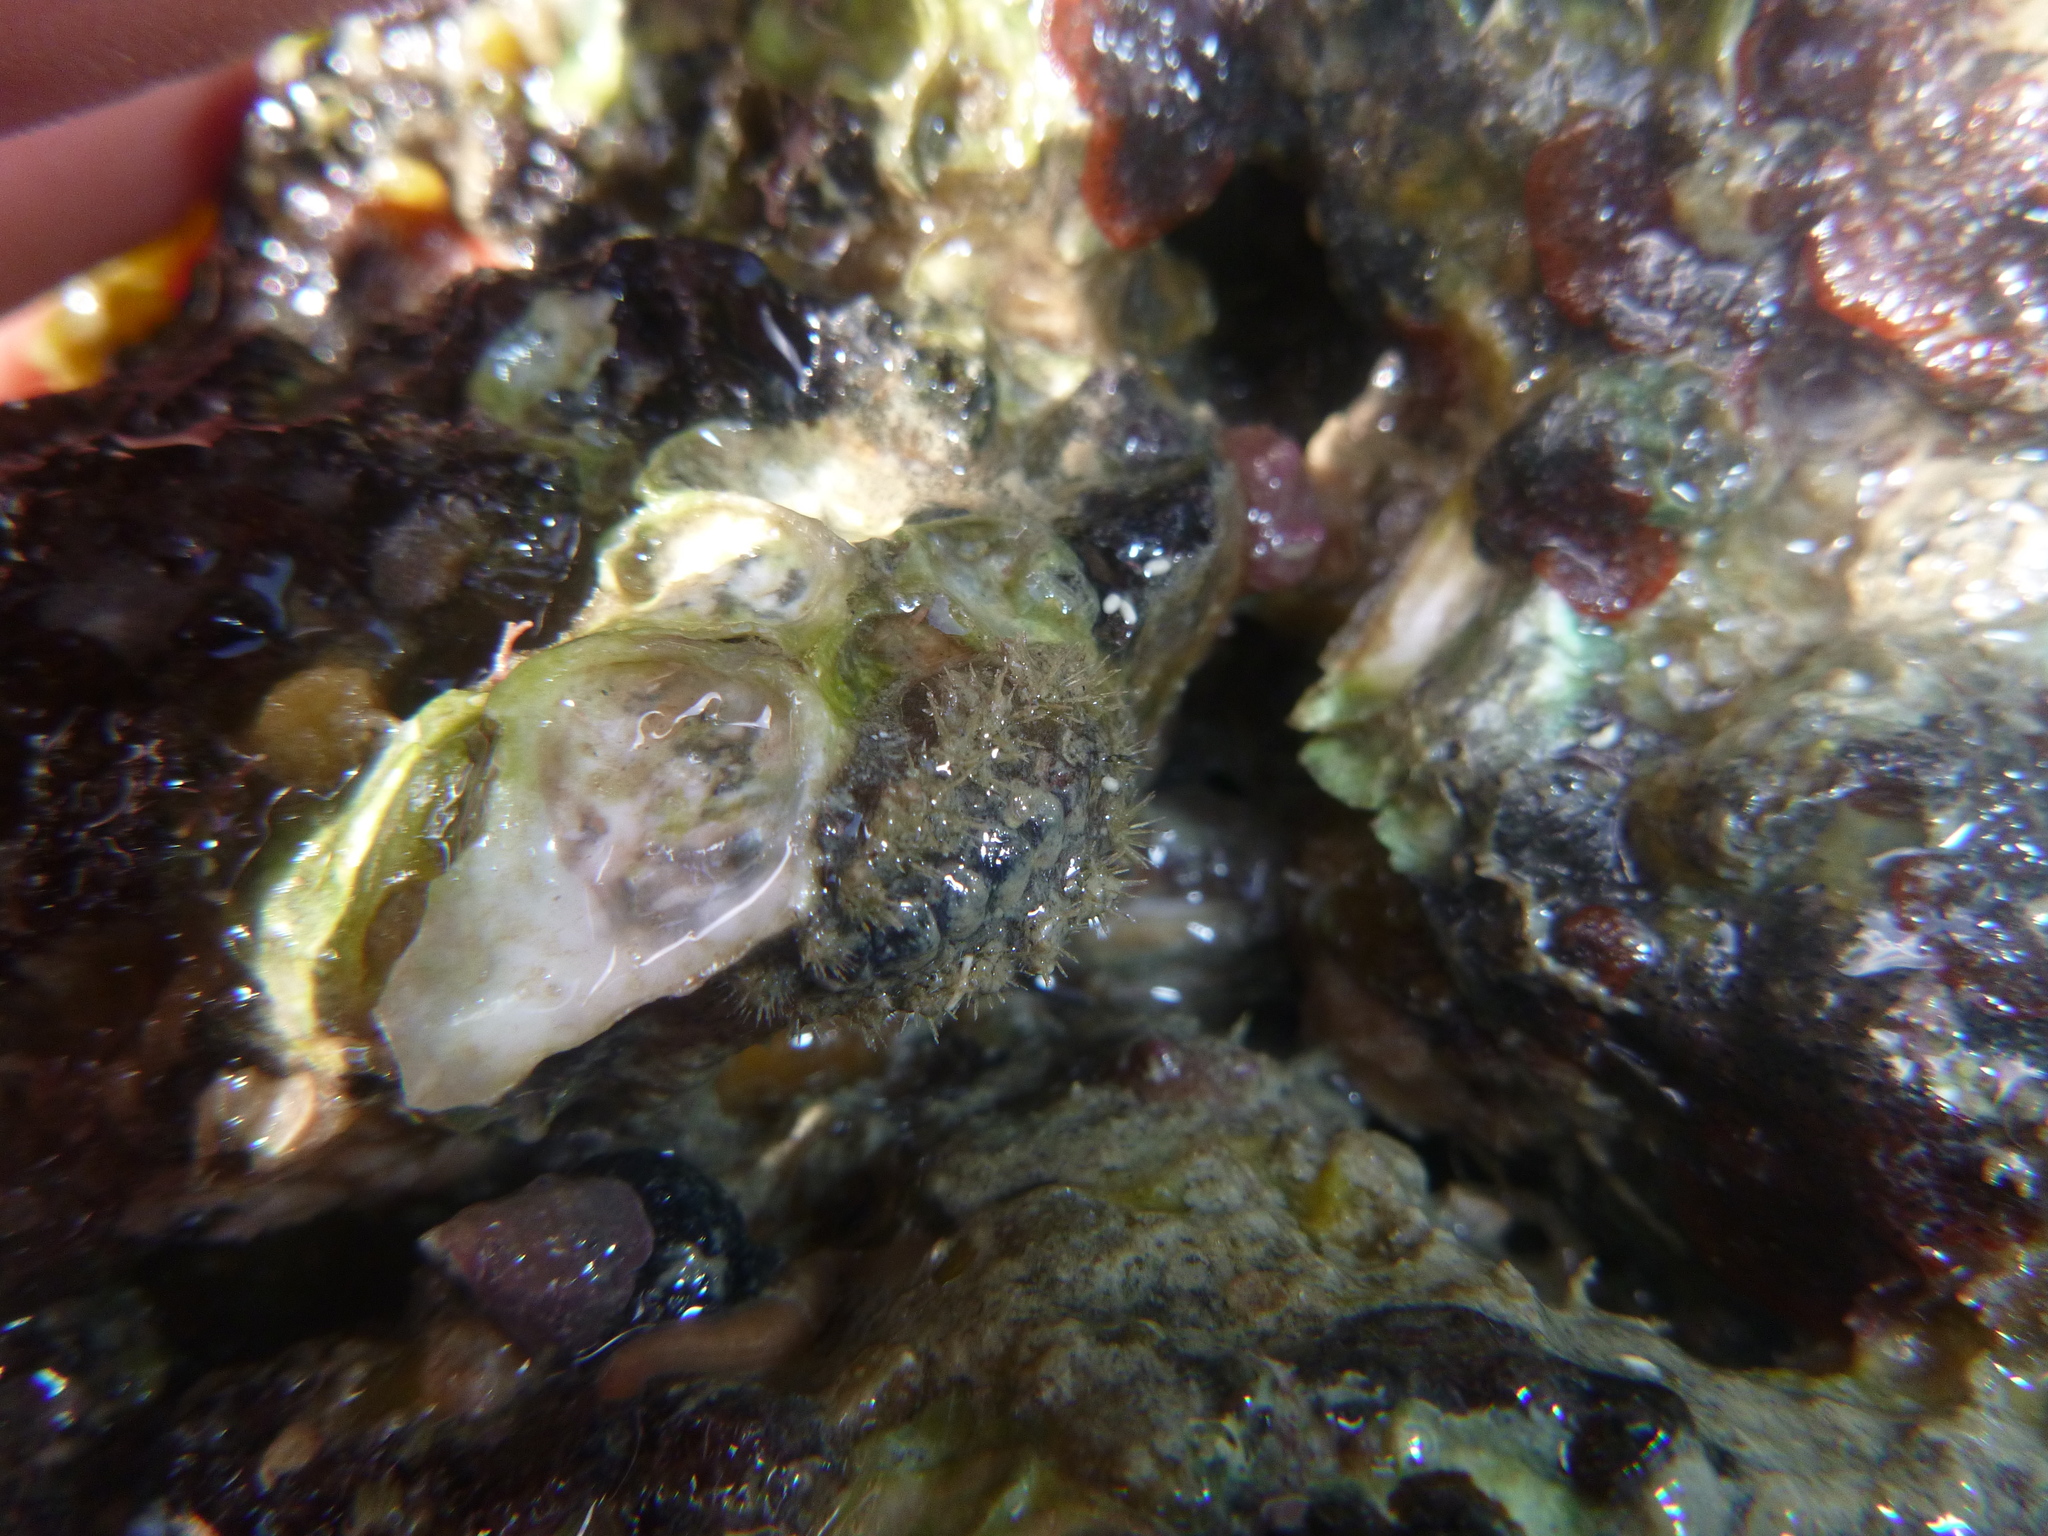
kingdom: Animalia
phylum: Mollusca
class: Polyplacophora
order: Chitonida
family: Acanthochitonidae
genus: Acanthochitona
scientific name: Acanthochitona zelandica
